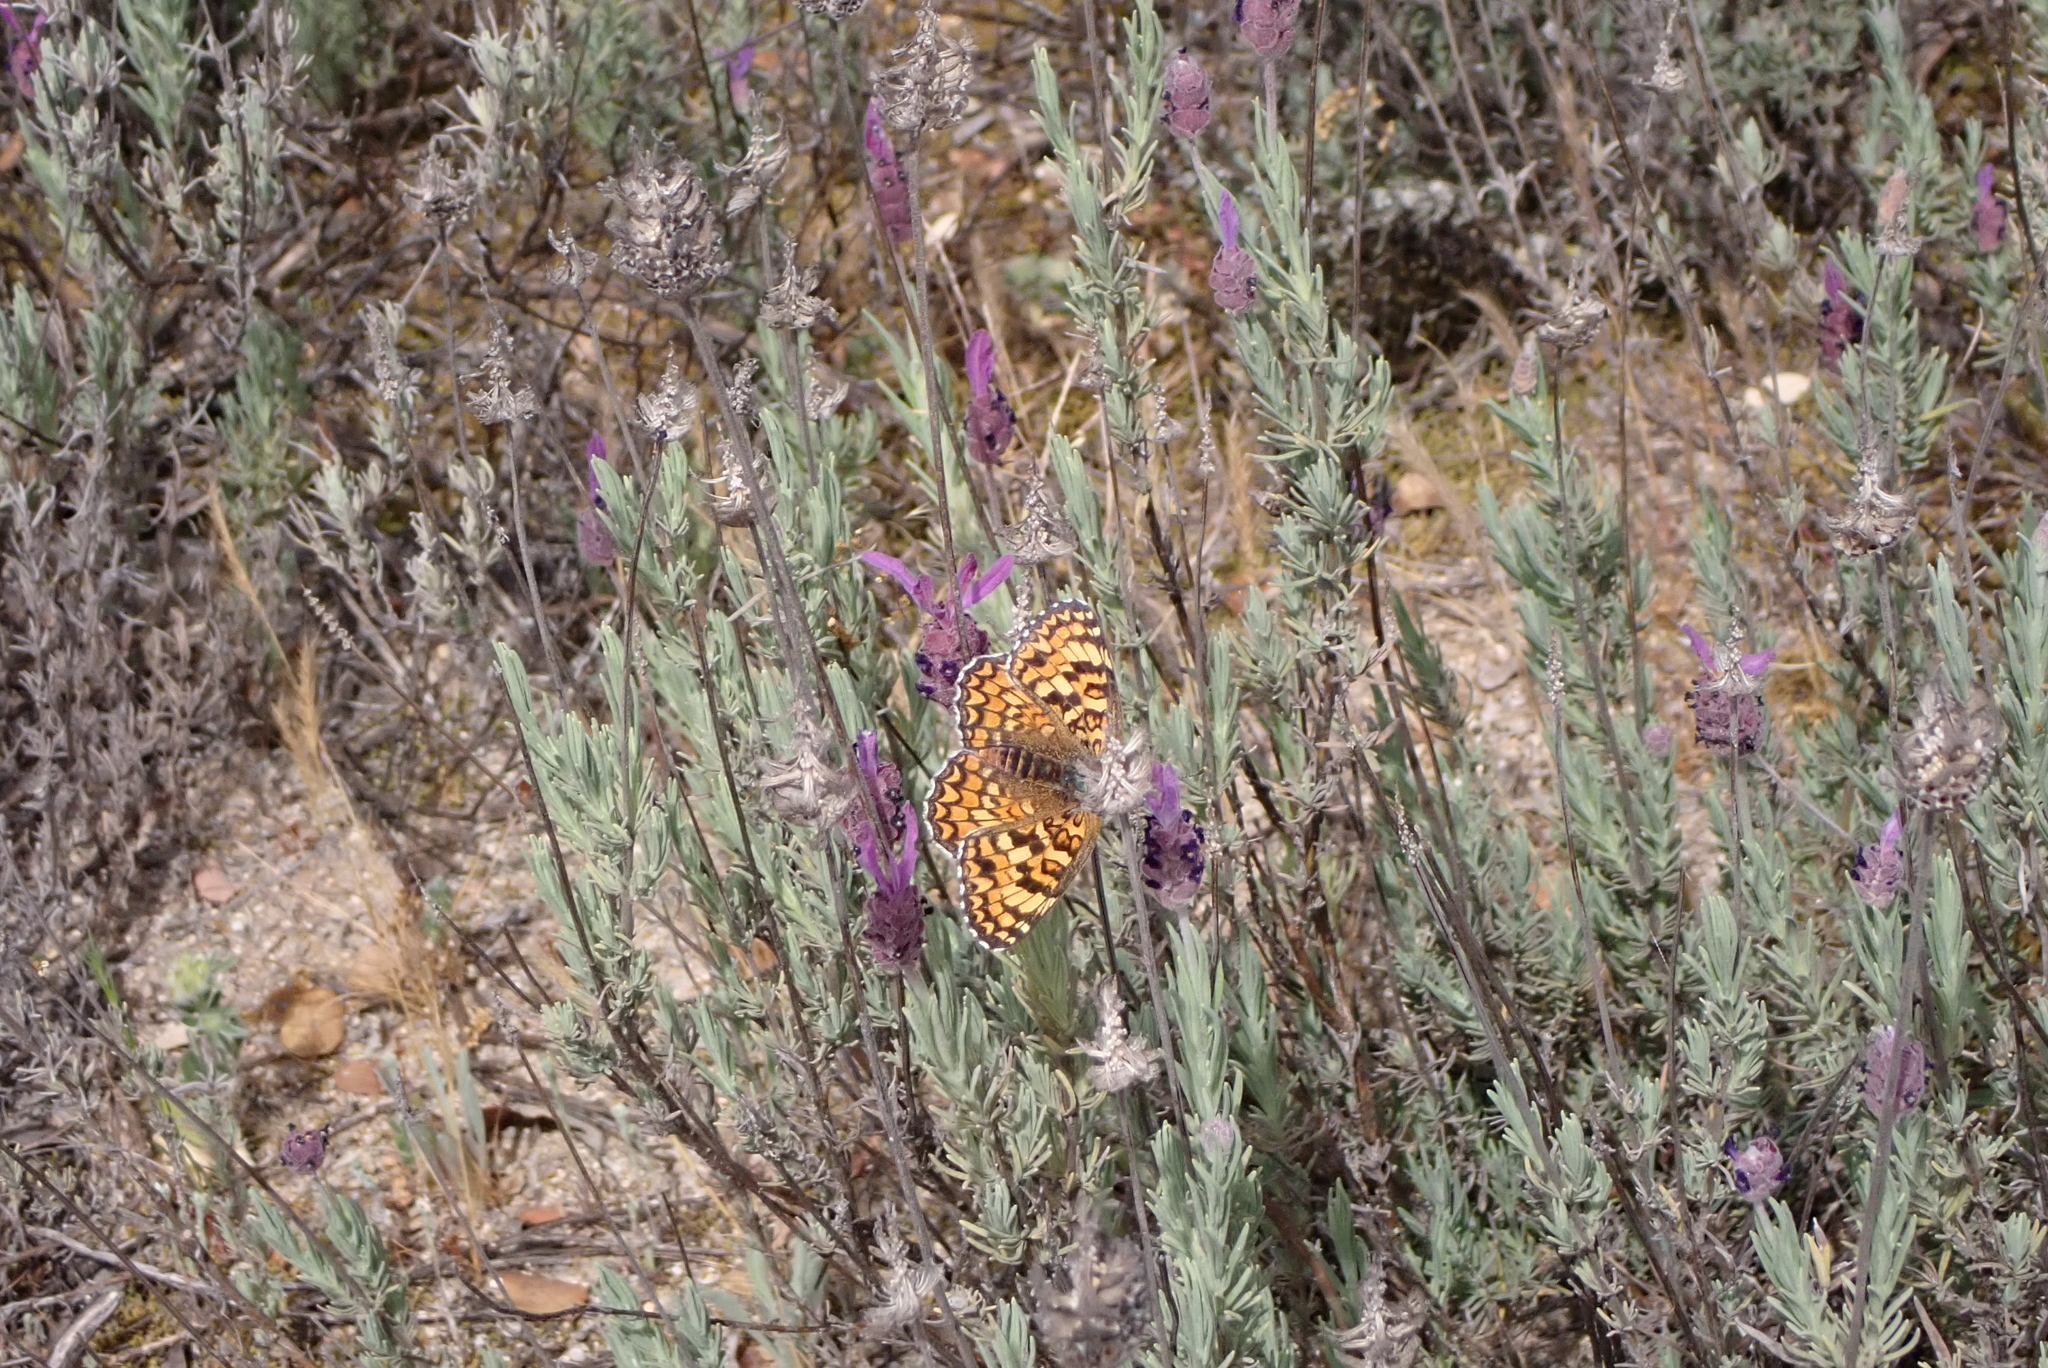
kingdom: Plantae
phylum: Tracheophyta
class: Magnoliopsida
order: Lamiales
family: Lamiaceae
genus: Lavandula
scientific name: Lavandula pedunculata
